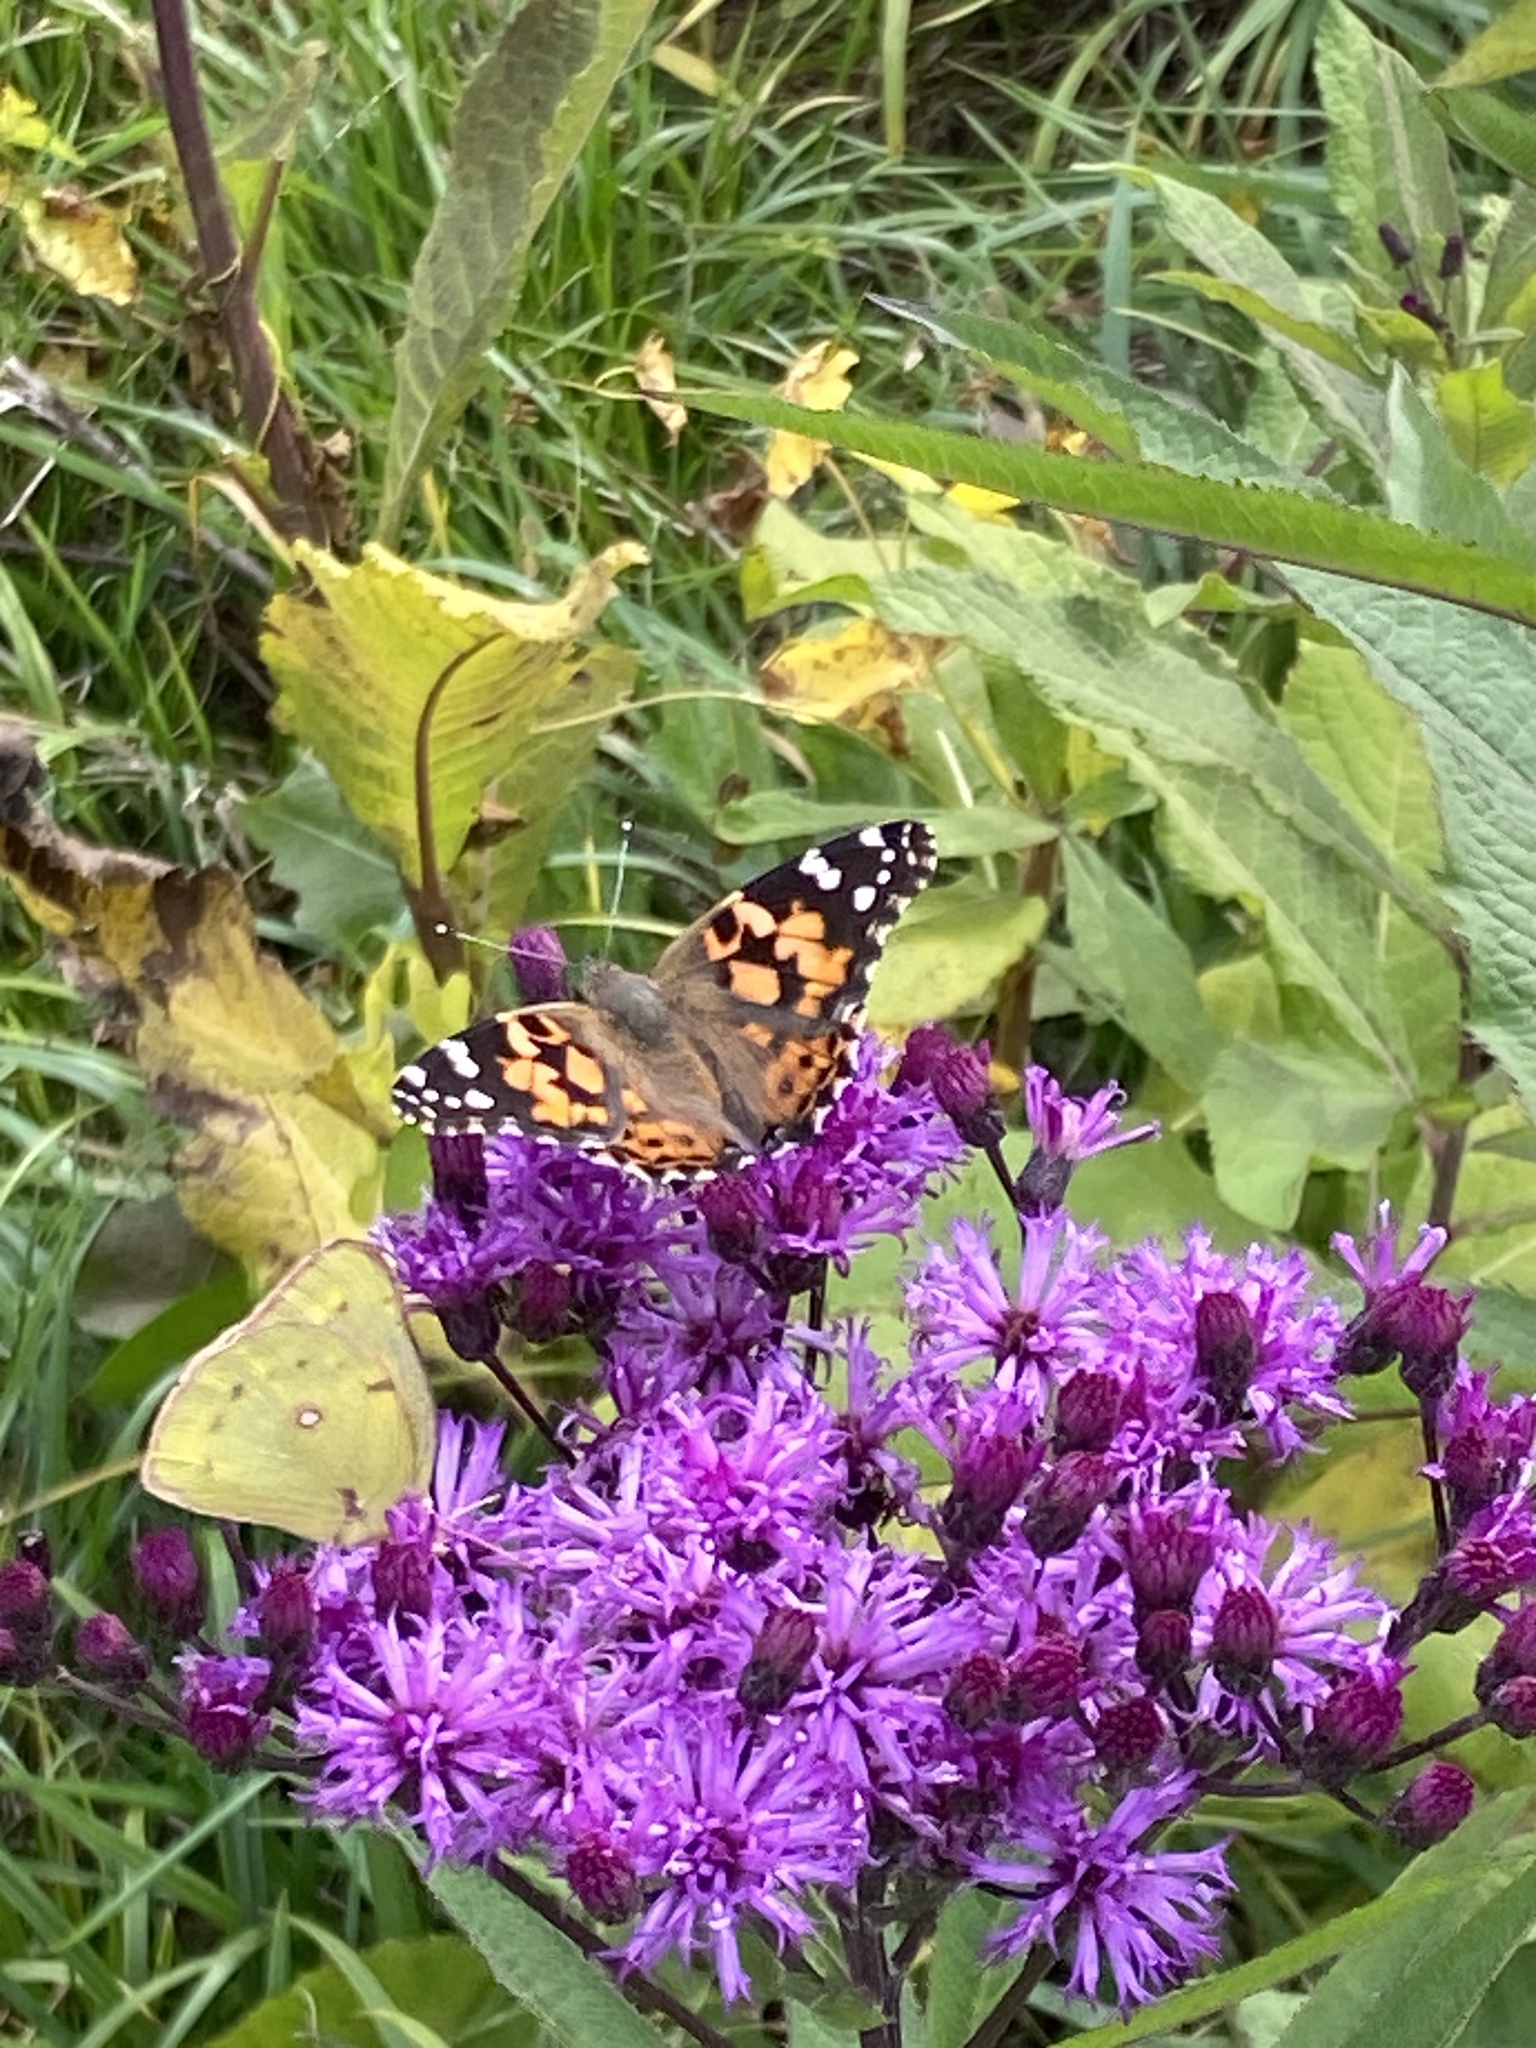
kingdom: Animalia
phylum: Arthropoda
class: Insecta
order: Lepidoptera
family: Nymphalidae
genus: Vanessa
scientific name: Vanessa cardui
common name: Painted lady
